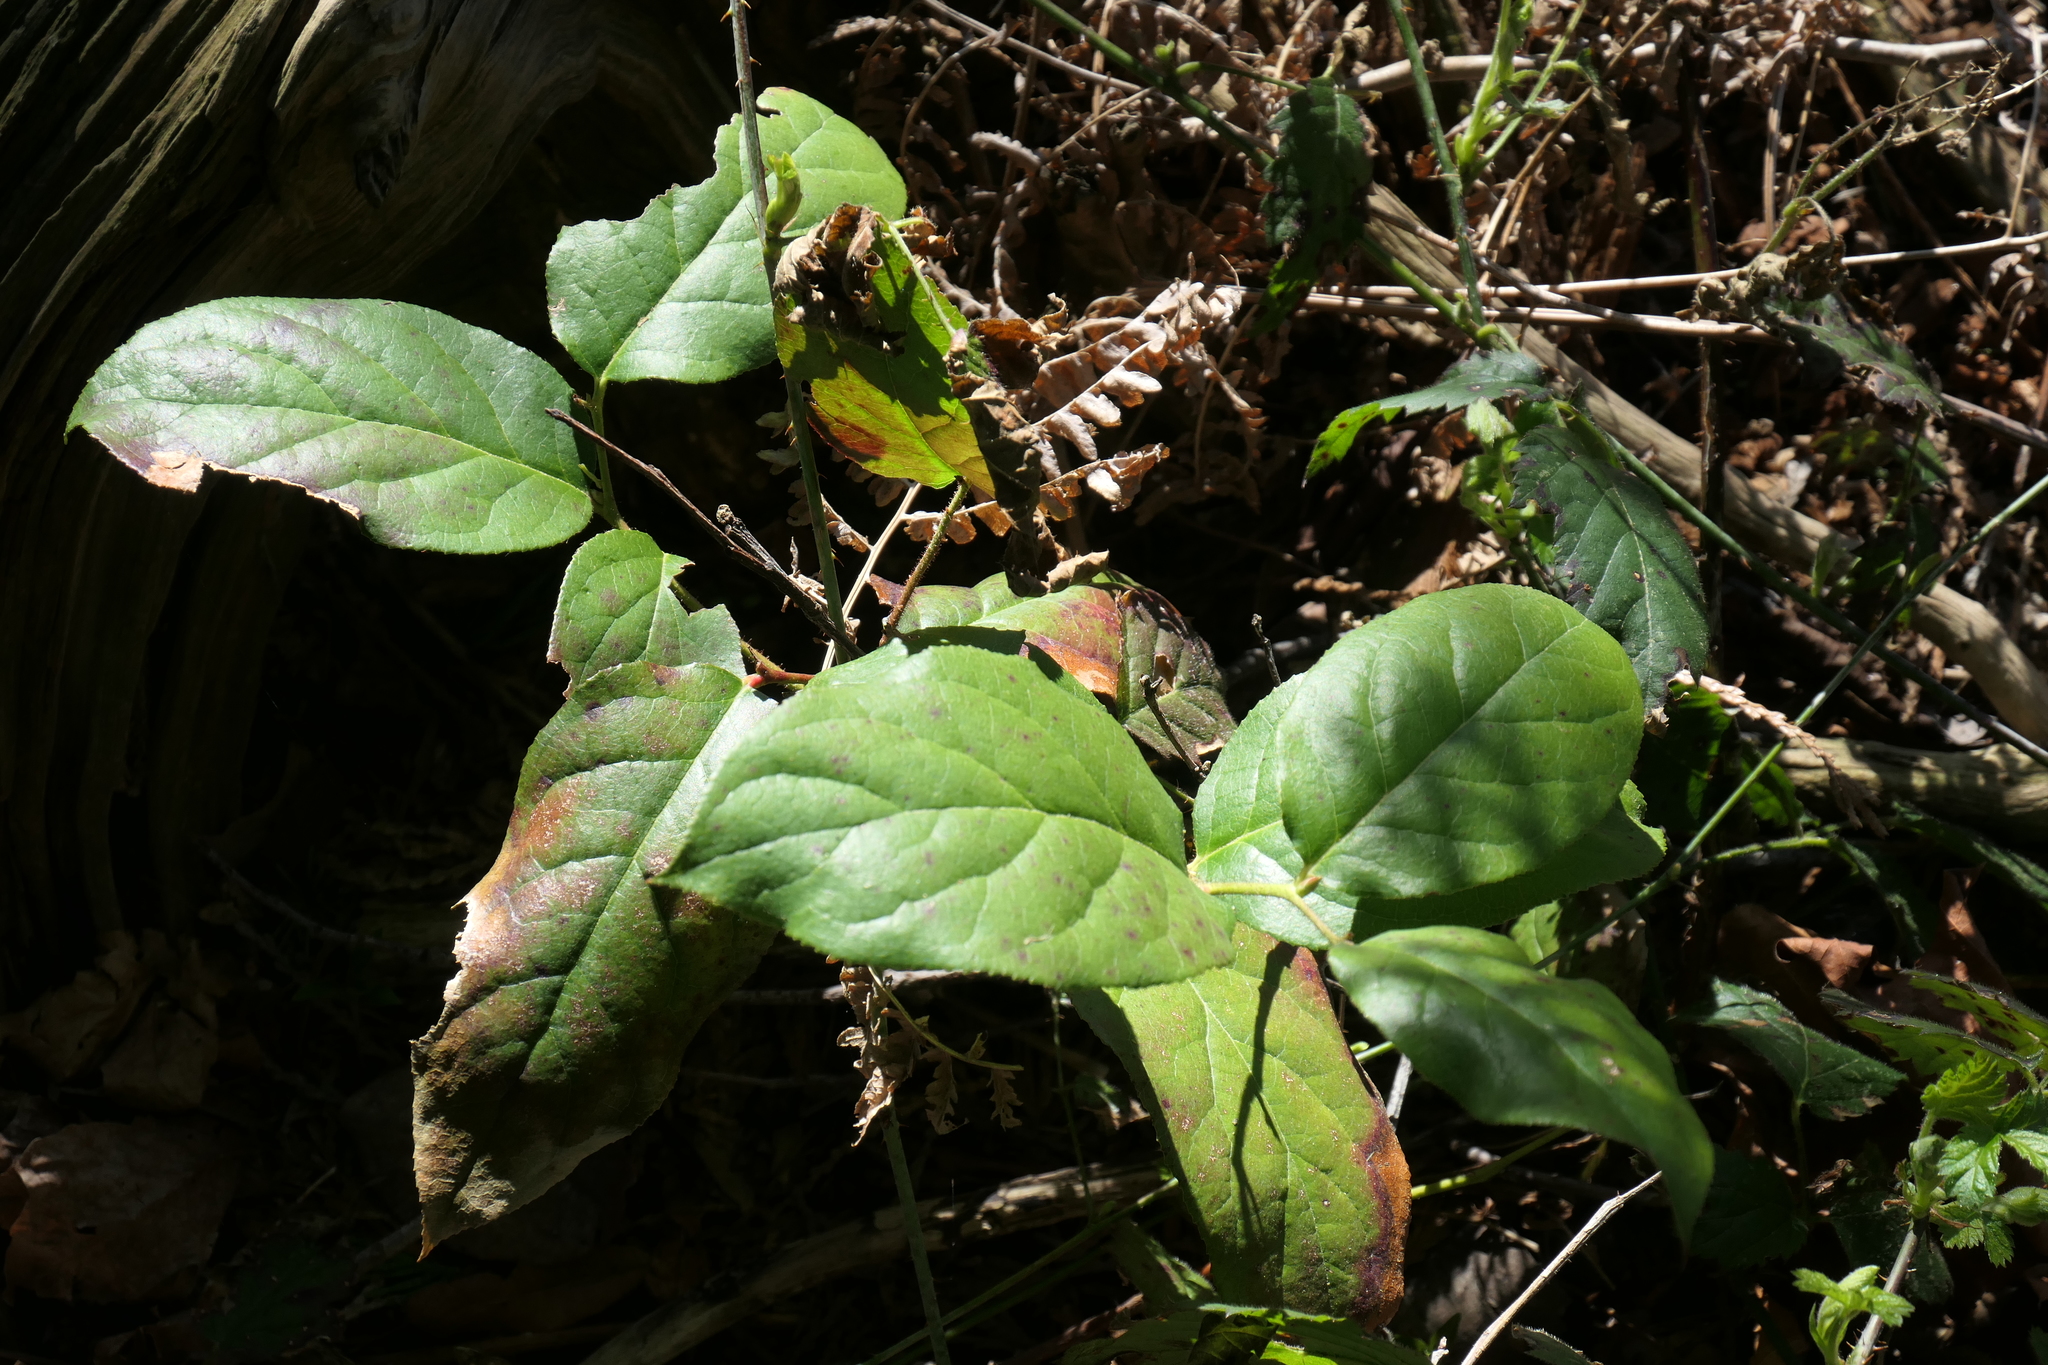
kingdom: Plantae
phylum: Tracheophyta
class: Magnoliopsida
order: Ericales
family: Ericaceae
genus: Gaultheria
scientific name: Gaultheria shallon
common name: Shallon
